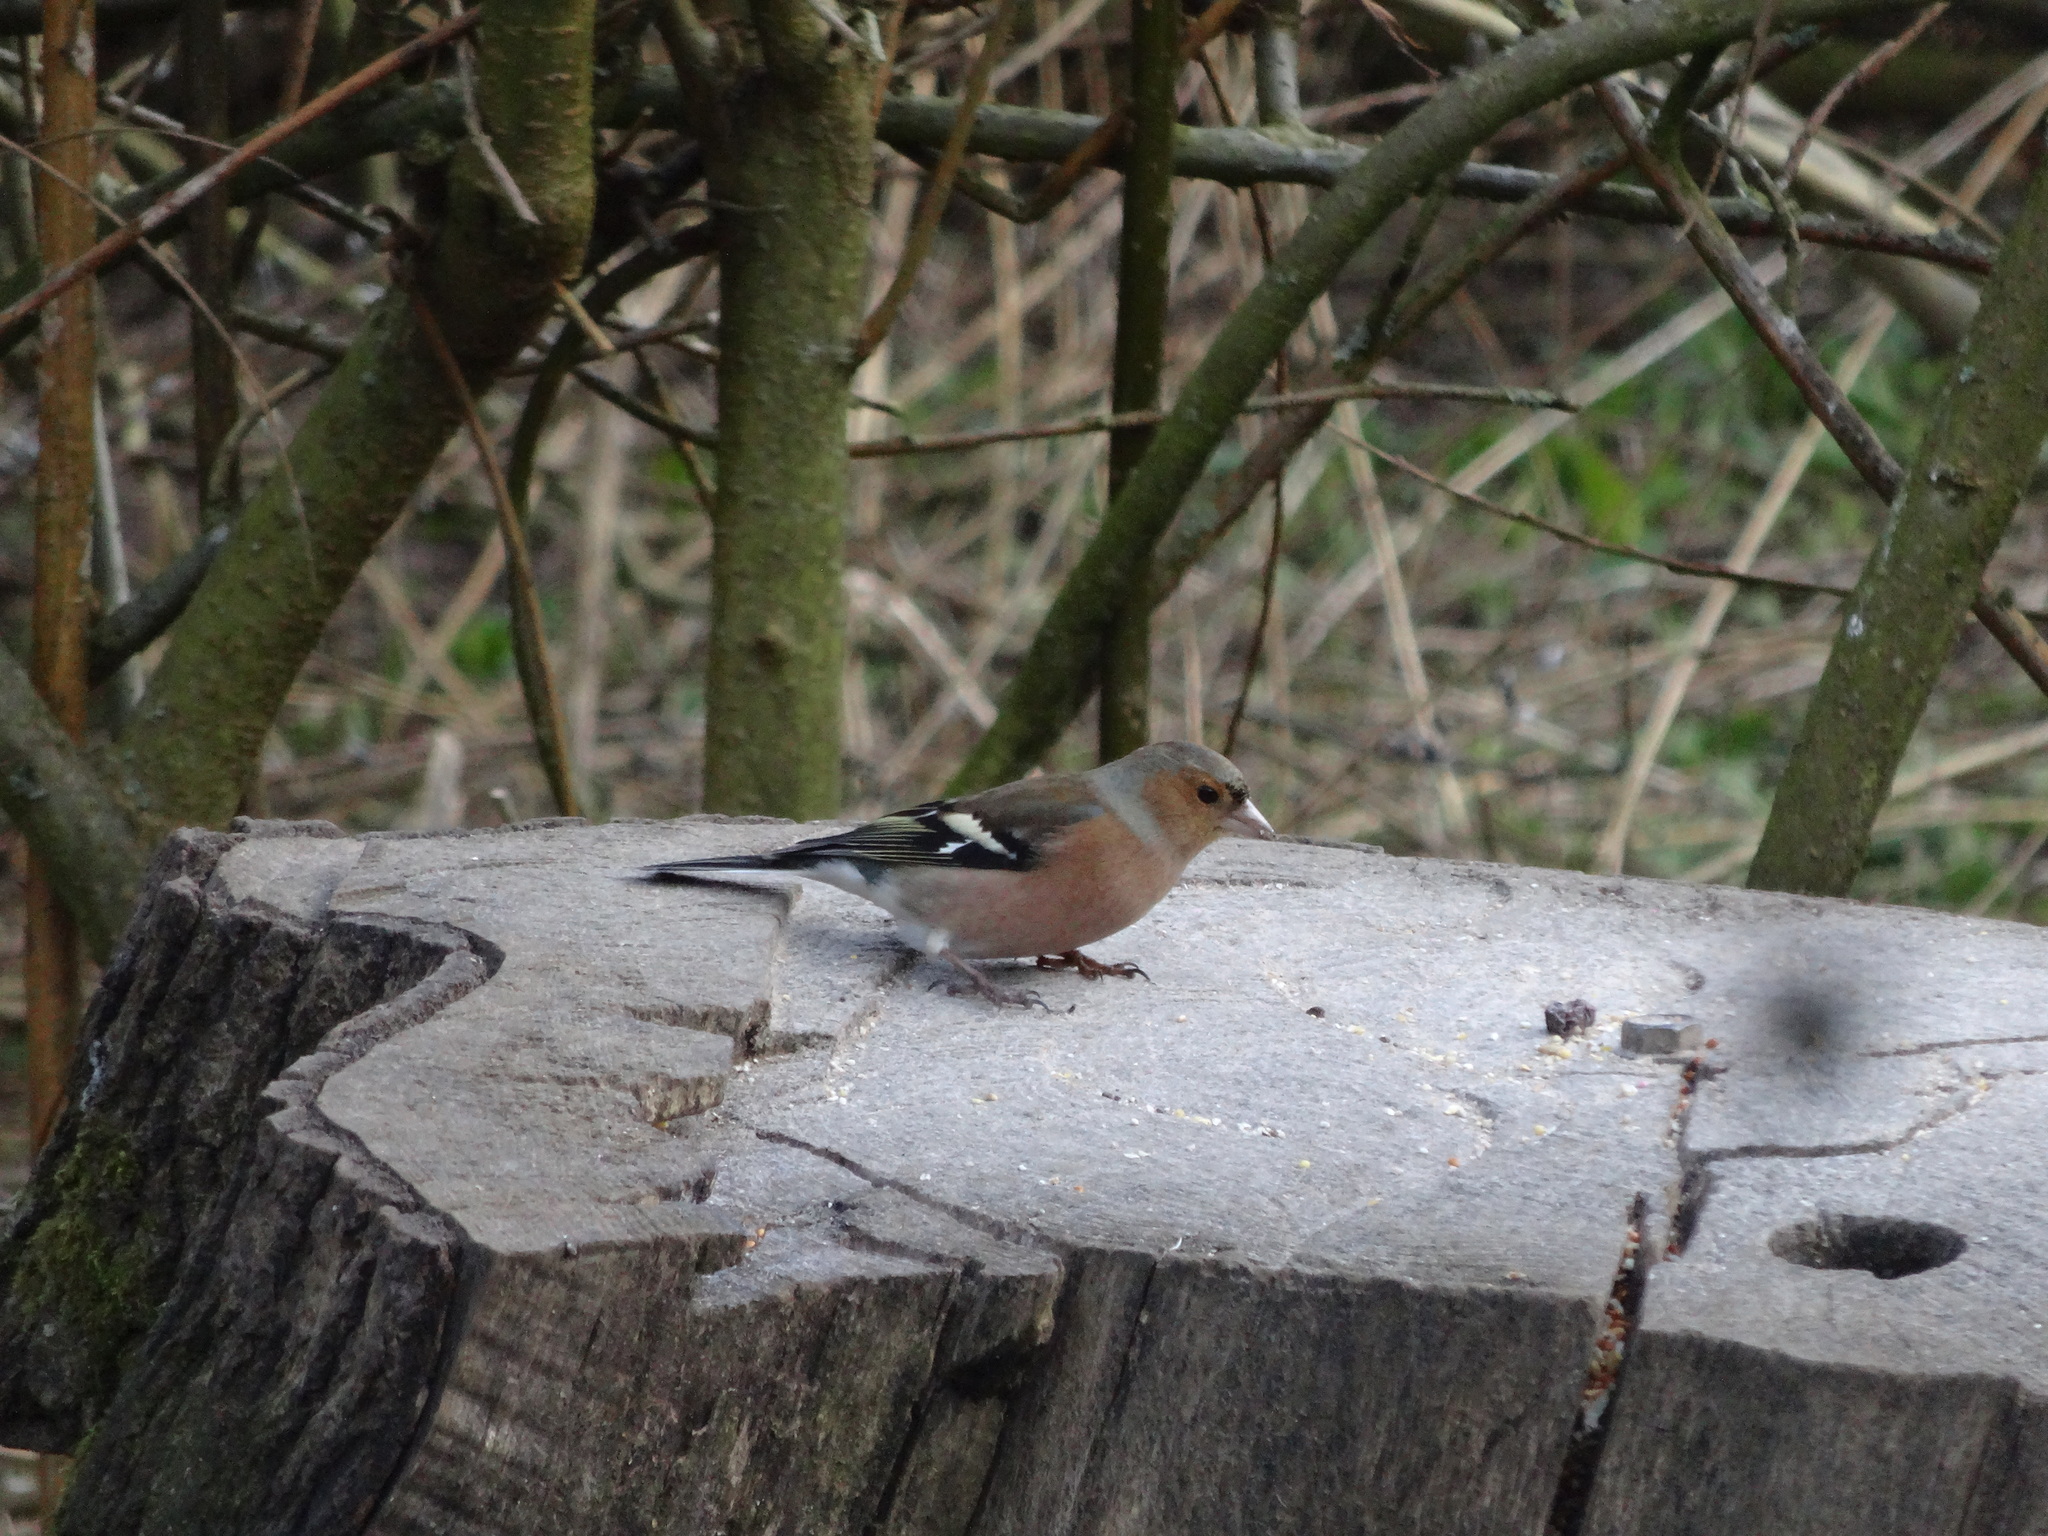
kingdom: Animalia
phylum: Chordata
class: Aves
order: Passeriformes
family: Fringillidae
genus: Fringilla
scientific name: Fringilla coelebs
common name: Common chaffinch
